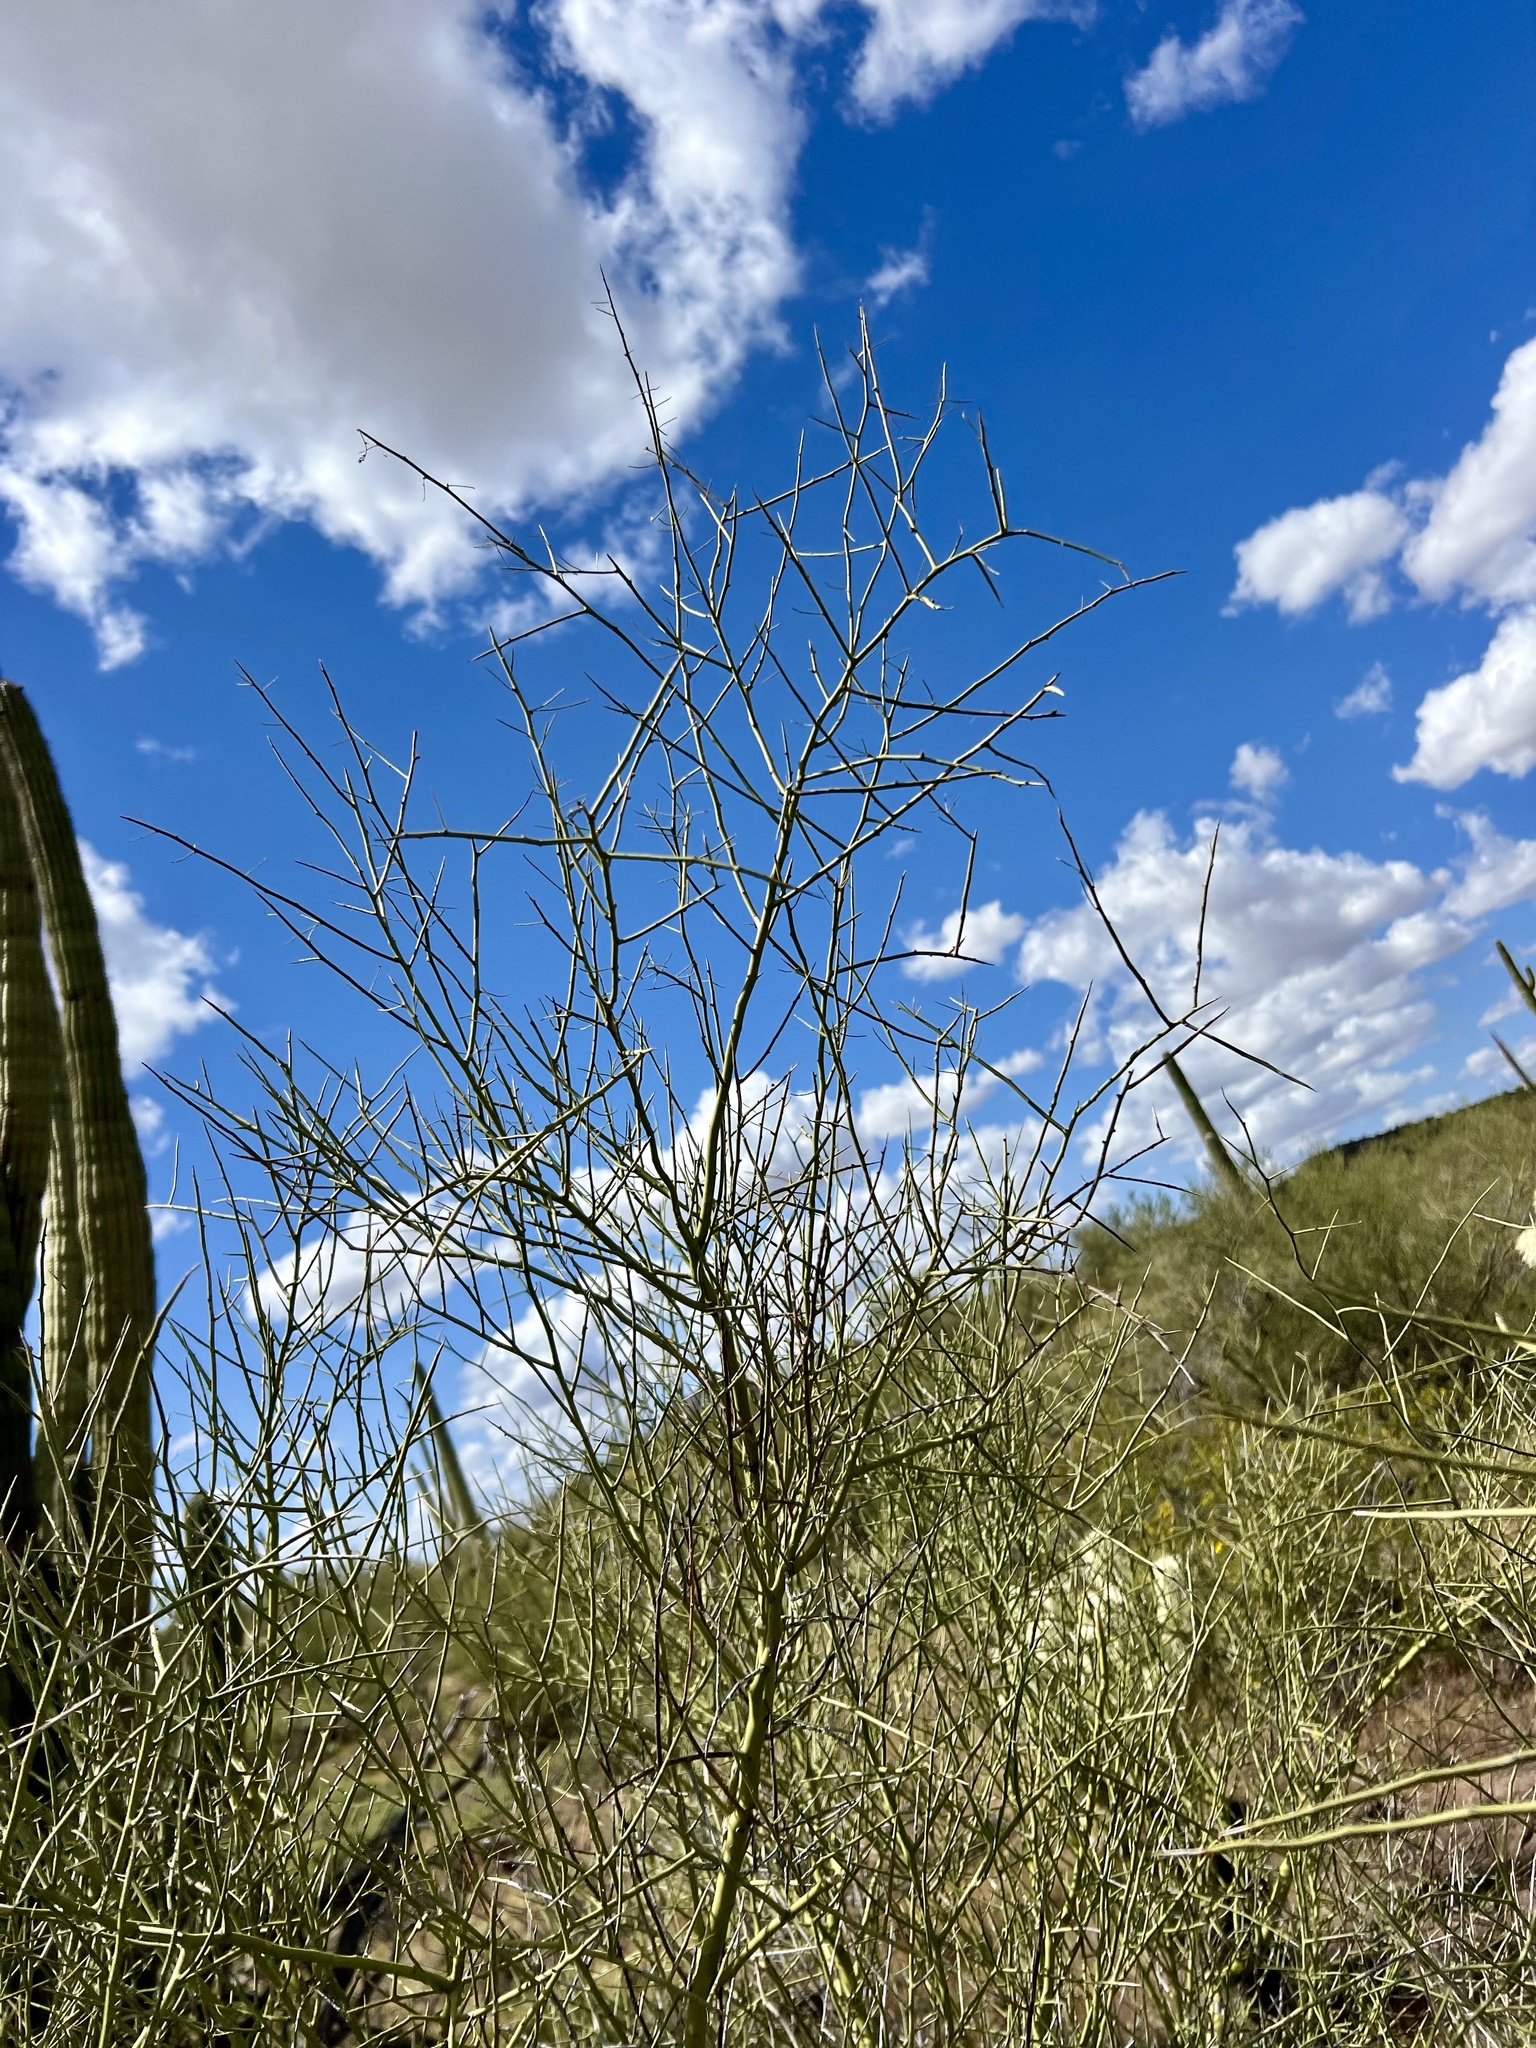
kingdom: Plantae
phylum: Tracheophyta
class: Magnoliopsida
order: Fabales
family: Fabaceae
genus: Parkinsonia
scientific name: Parkinsonia microphylla
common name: Yellow paloverde
